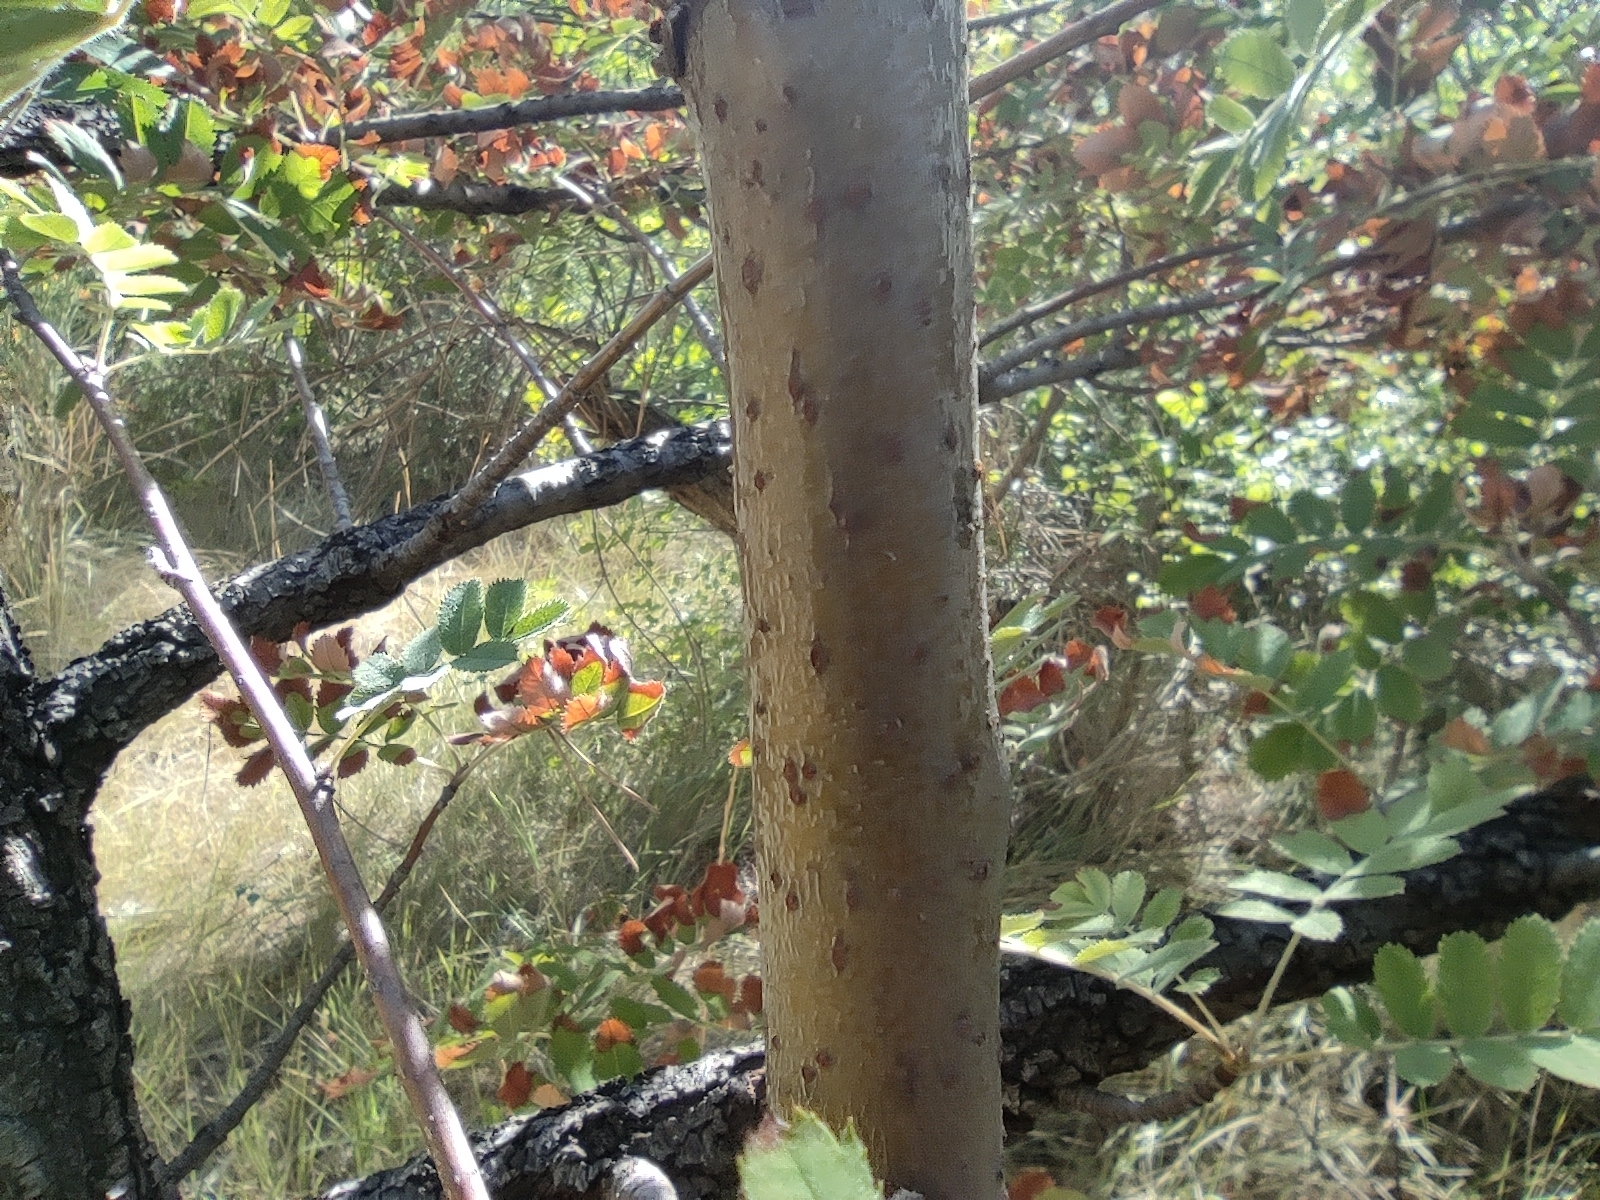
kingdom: Plantae
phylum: Tracheophyta
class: Magnoliopsida
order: Rosales
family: Rosaceae
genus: Sorbus
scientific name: Sorbus aucuparia
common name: Rowan
